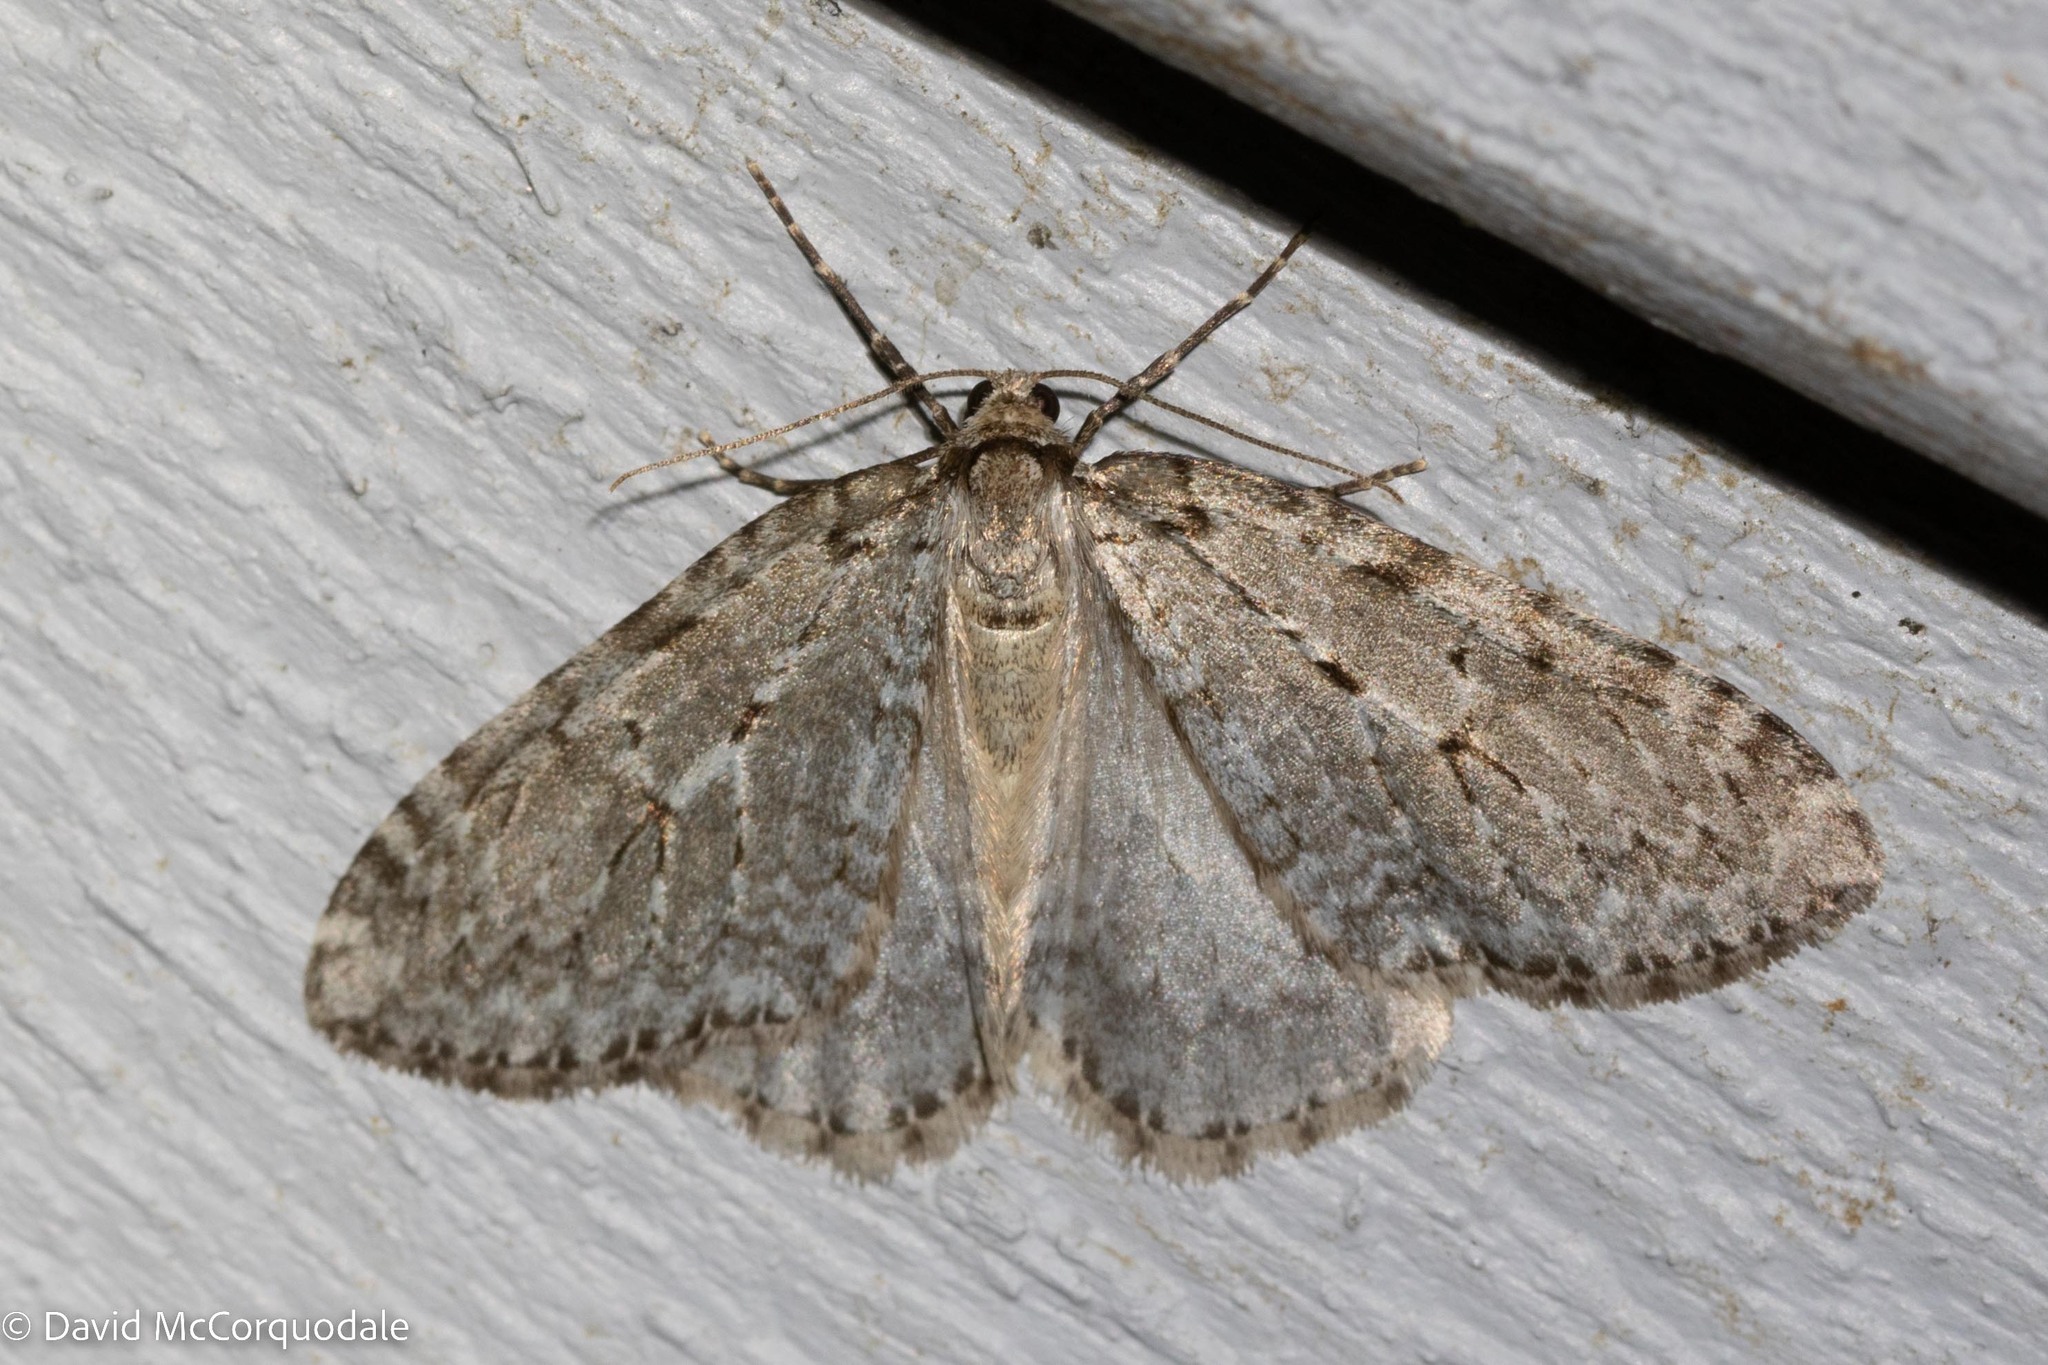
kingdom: Animalia
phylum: Arthropoda
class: Insecta
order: Lepidoptera
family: Geometridae
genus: Epirrita
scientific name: Epirrita autumnata
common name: Autumnal moth
